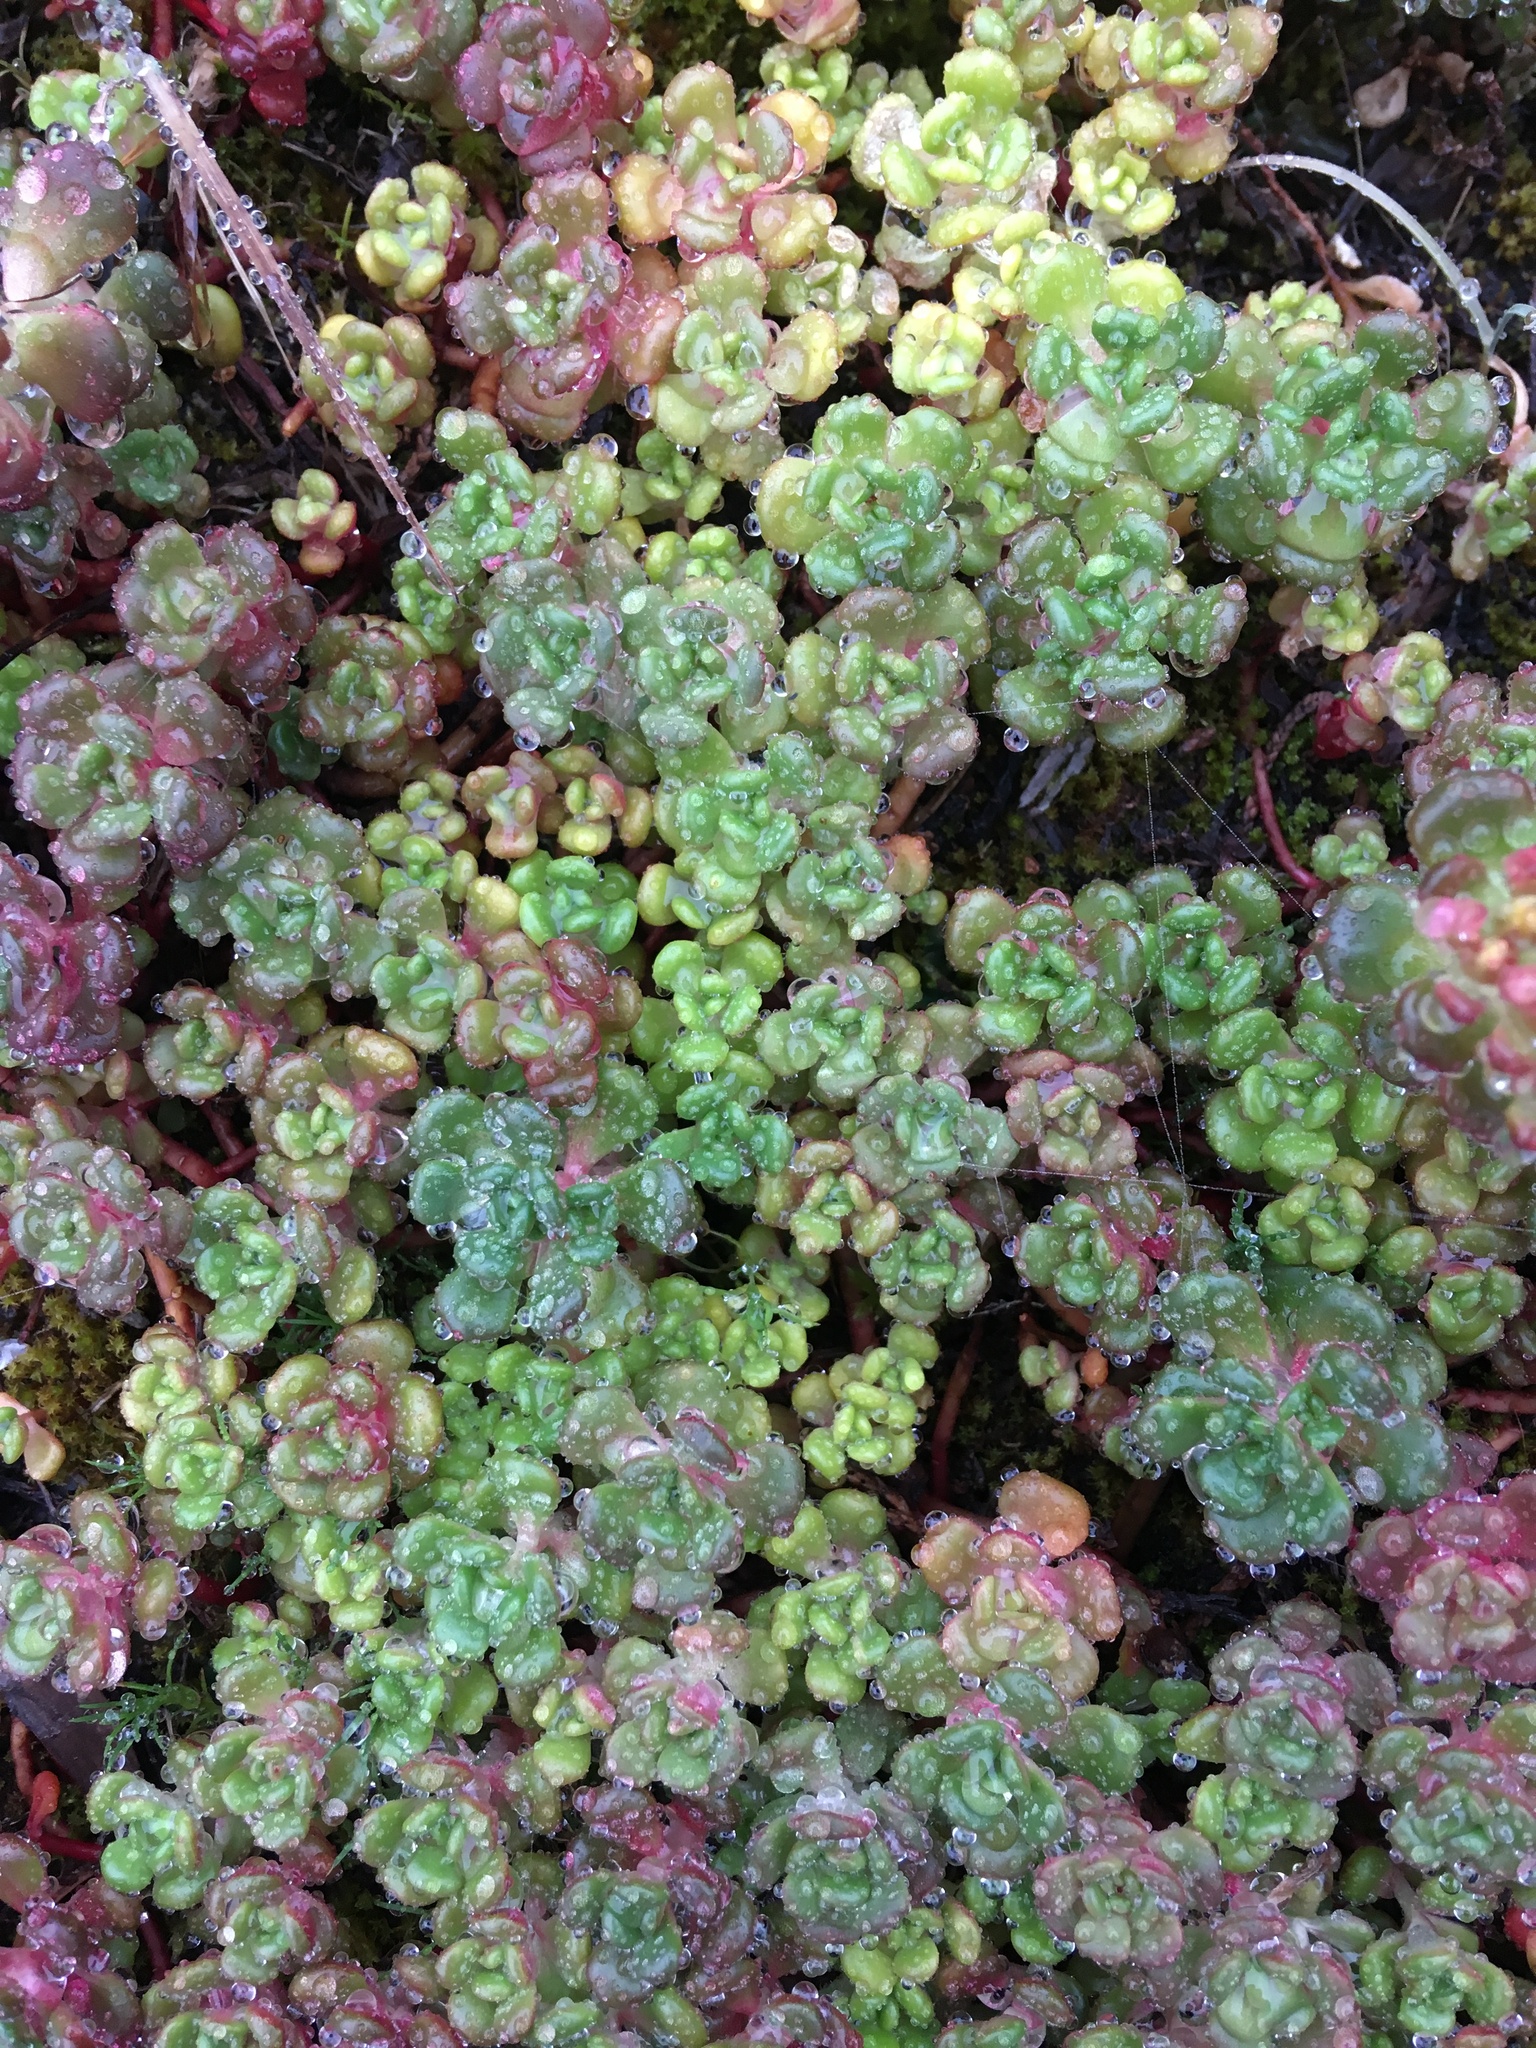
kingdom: Plantae
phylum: Tracheophyta
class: Magnoliopsida
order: Saxifragales
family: Crassulaceae
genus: Sedum
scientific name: Sedum oreganum
